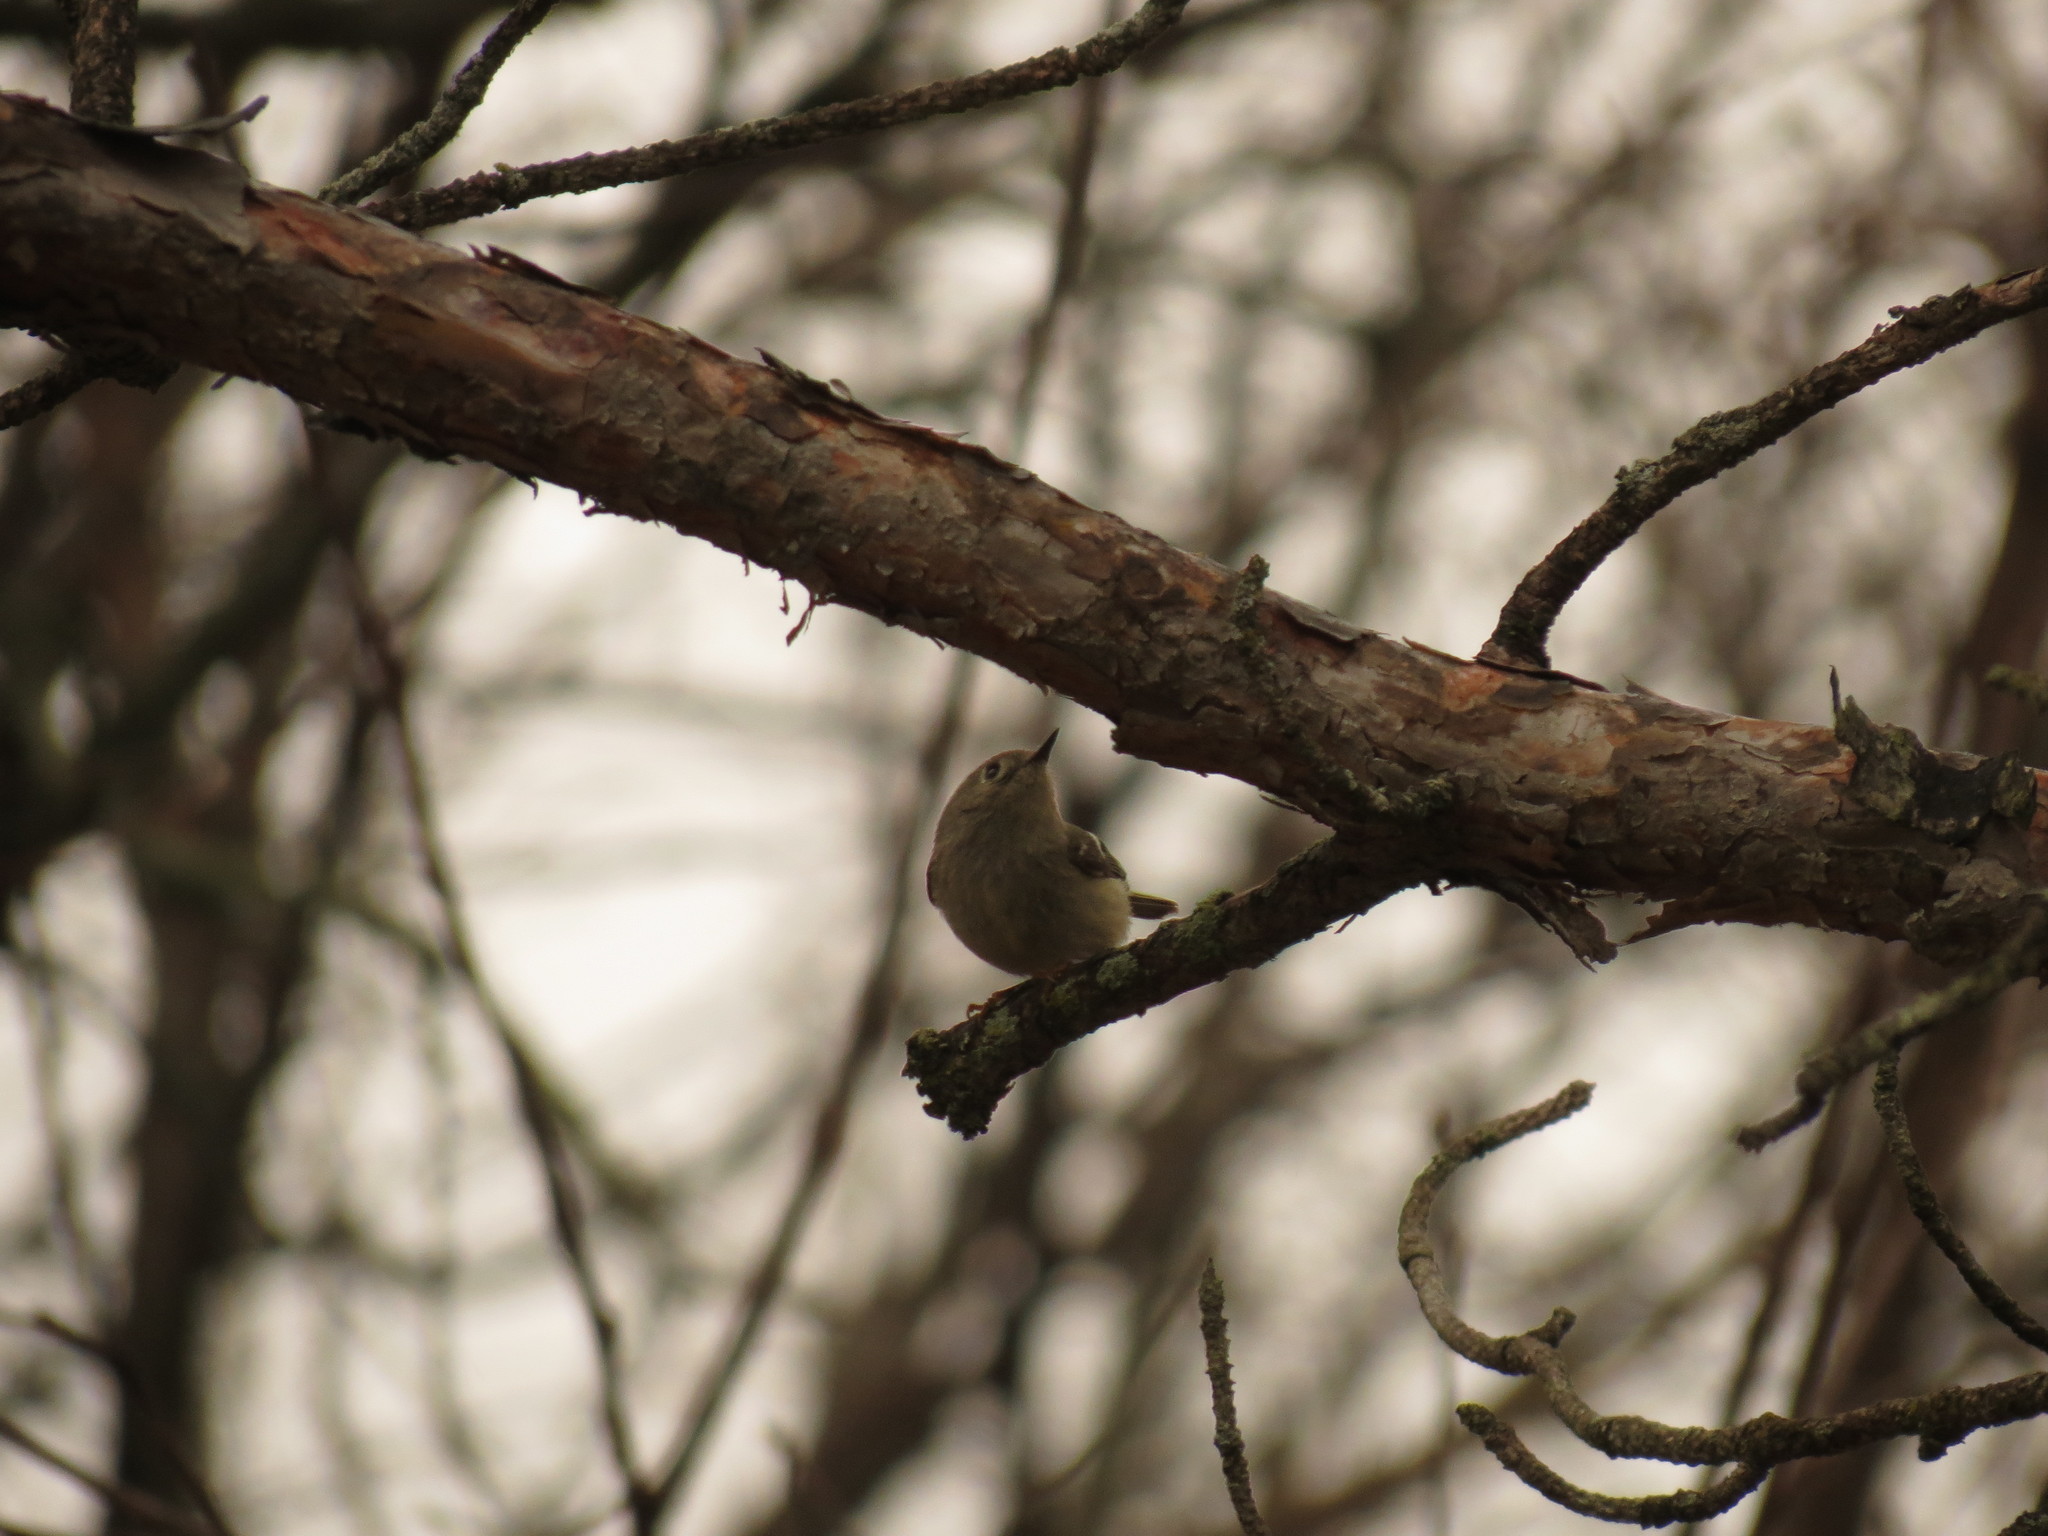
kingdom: Animalia
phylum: Chordata
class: Aves
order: Passeriformes
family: Regulidae
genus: Regulus
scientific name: Regulus calendula
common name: Ruby-crowned kinglet
